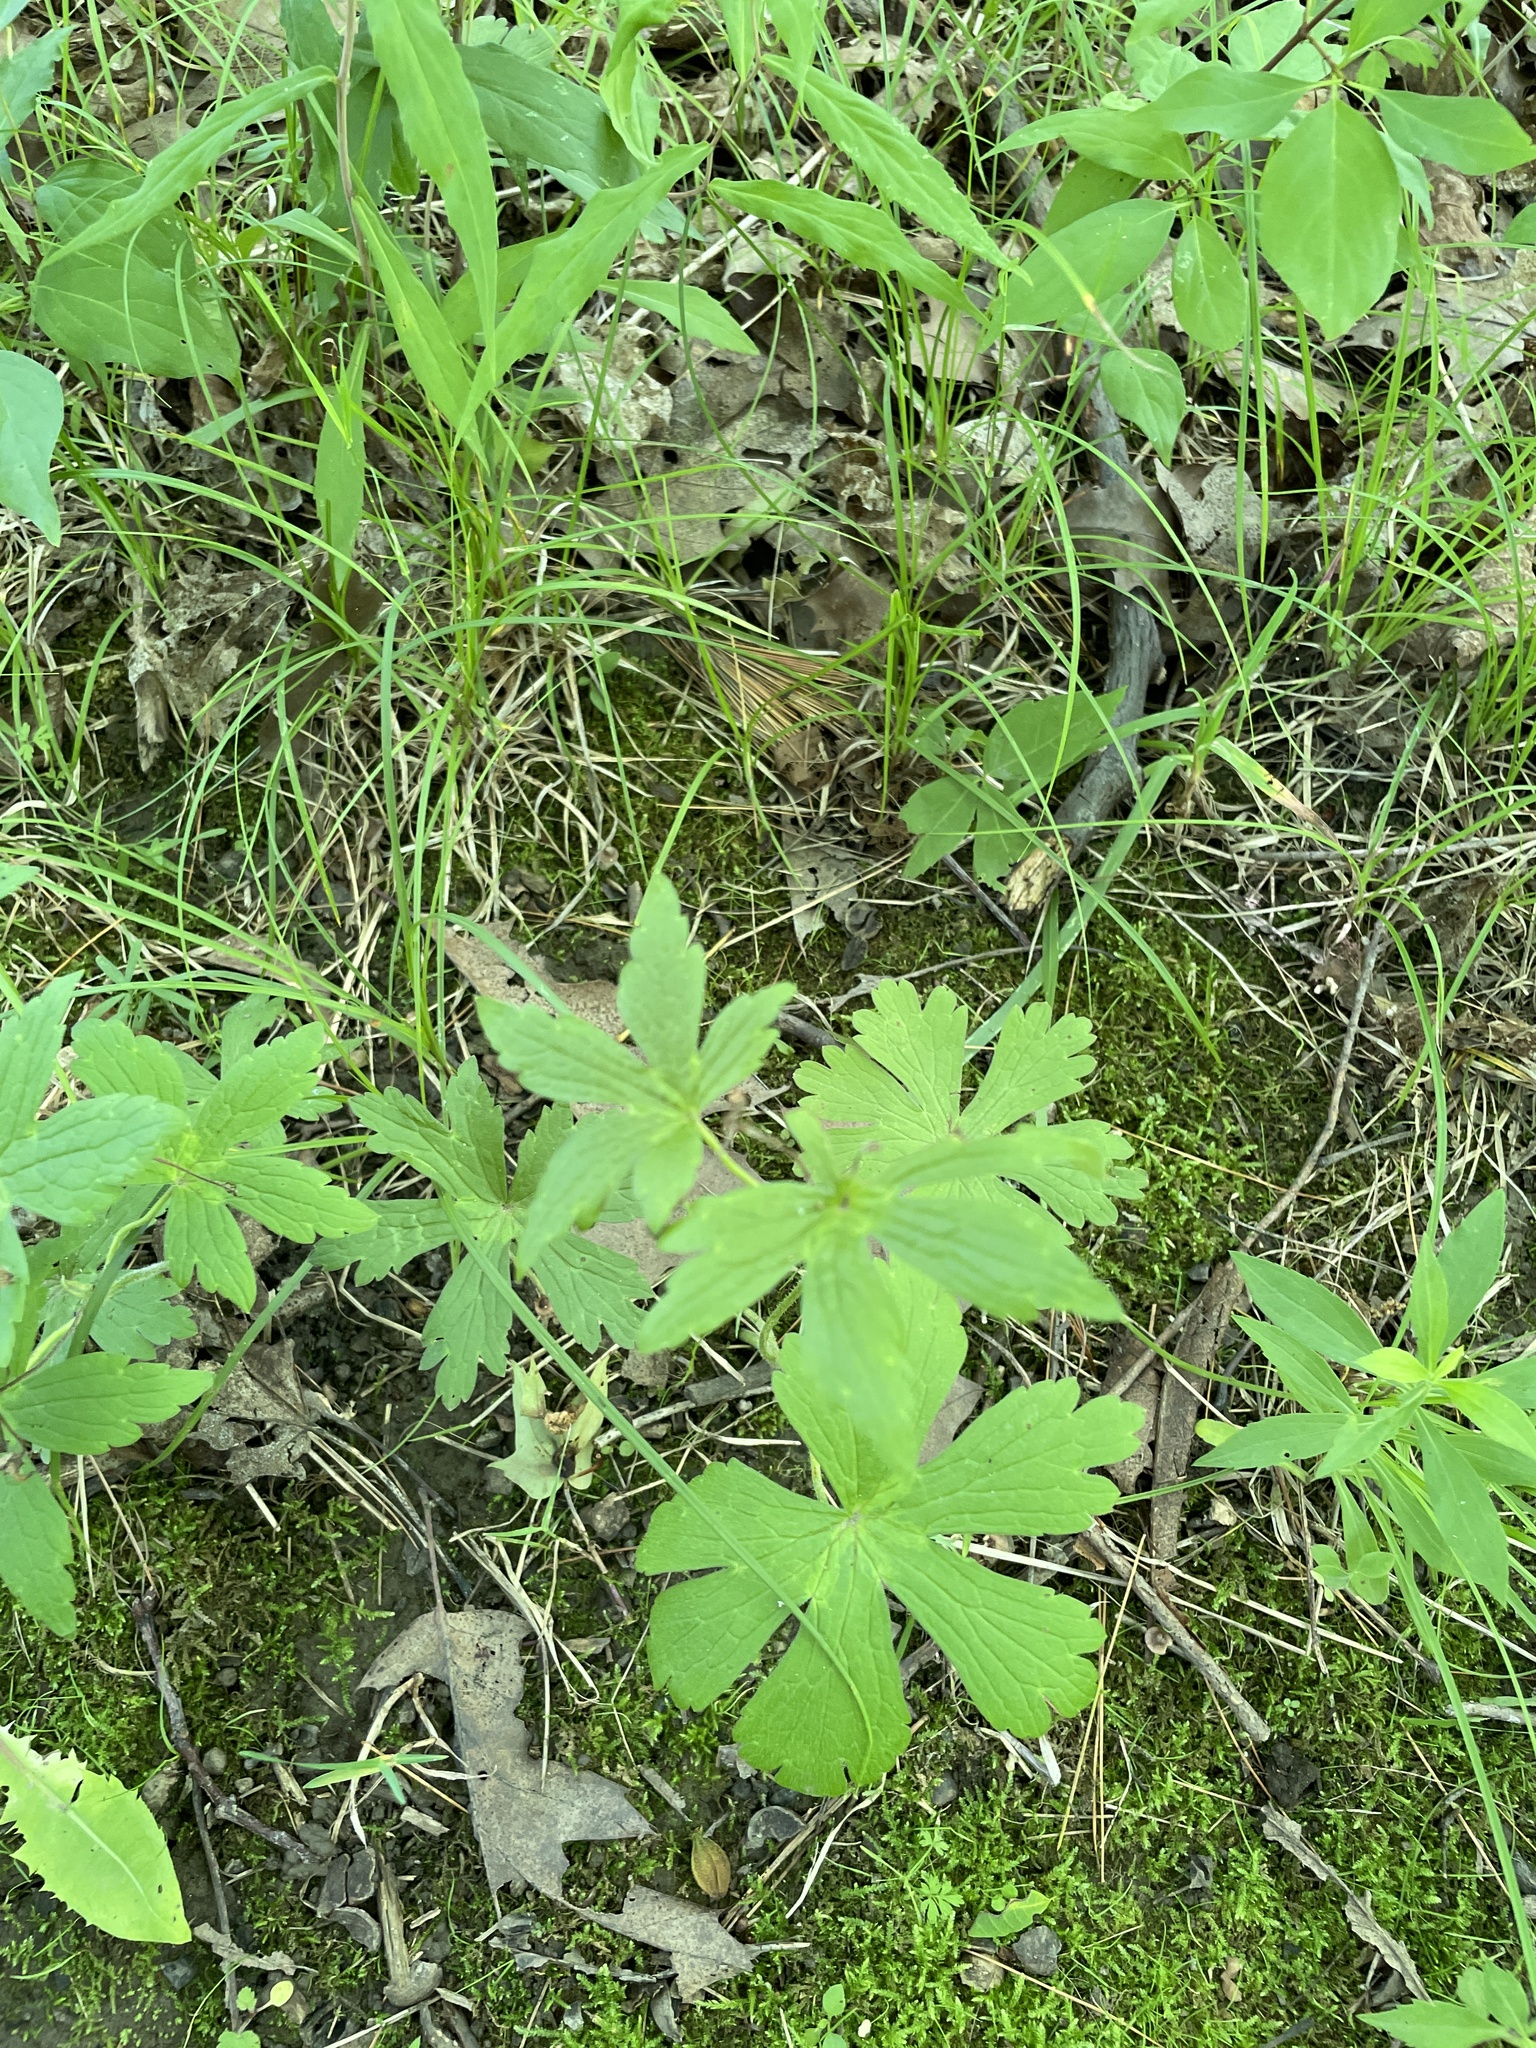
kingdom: Plantae
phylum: Tracheophyta
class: Magnoliopsida
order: Geraniales
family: Geraniaceae
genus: Geranium
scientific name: Geranium maculatum
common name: Spotted geranium
